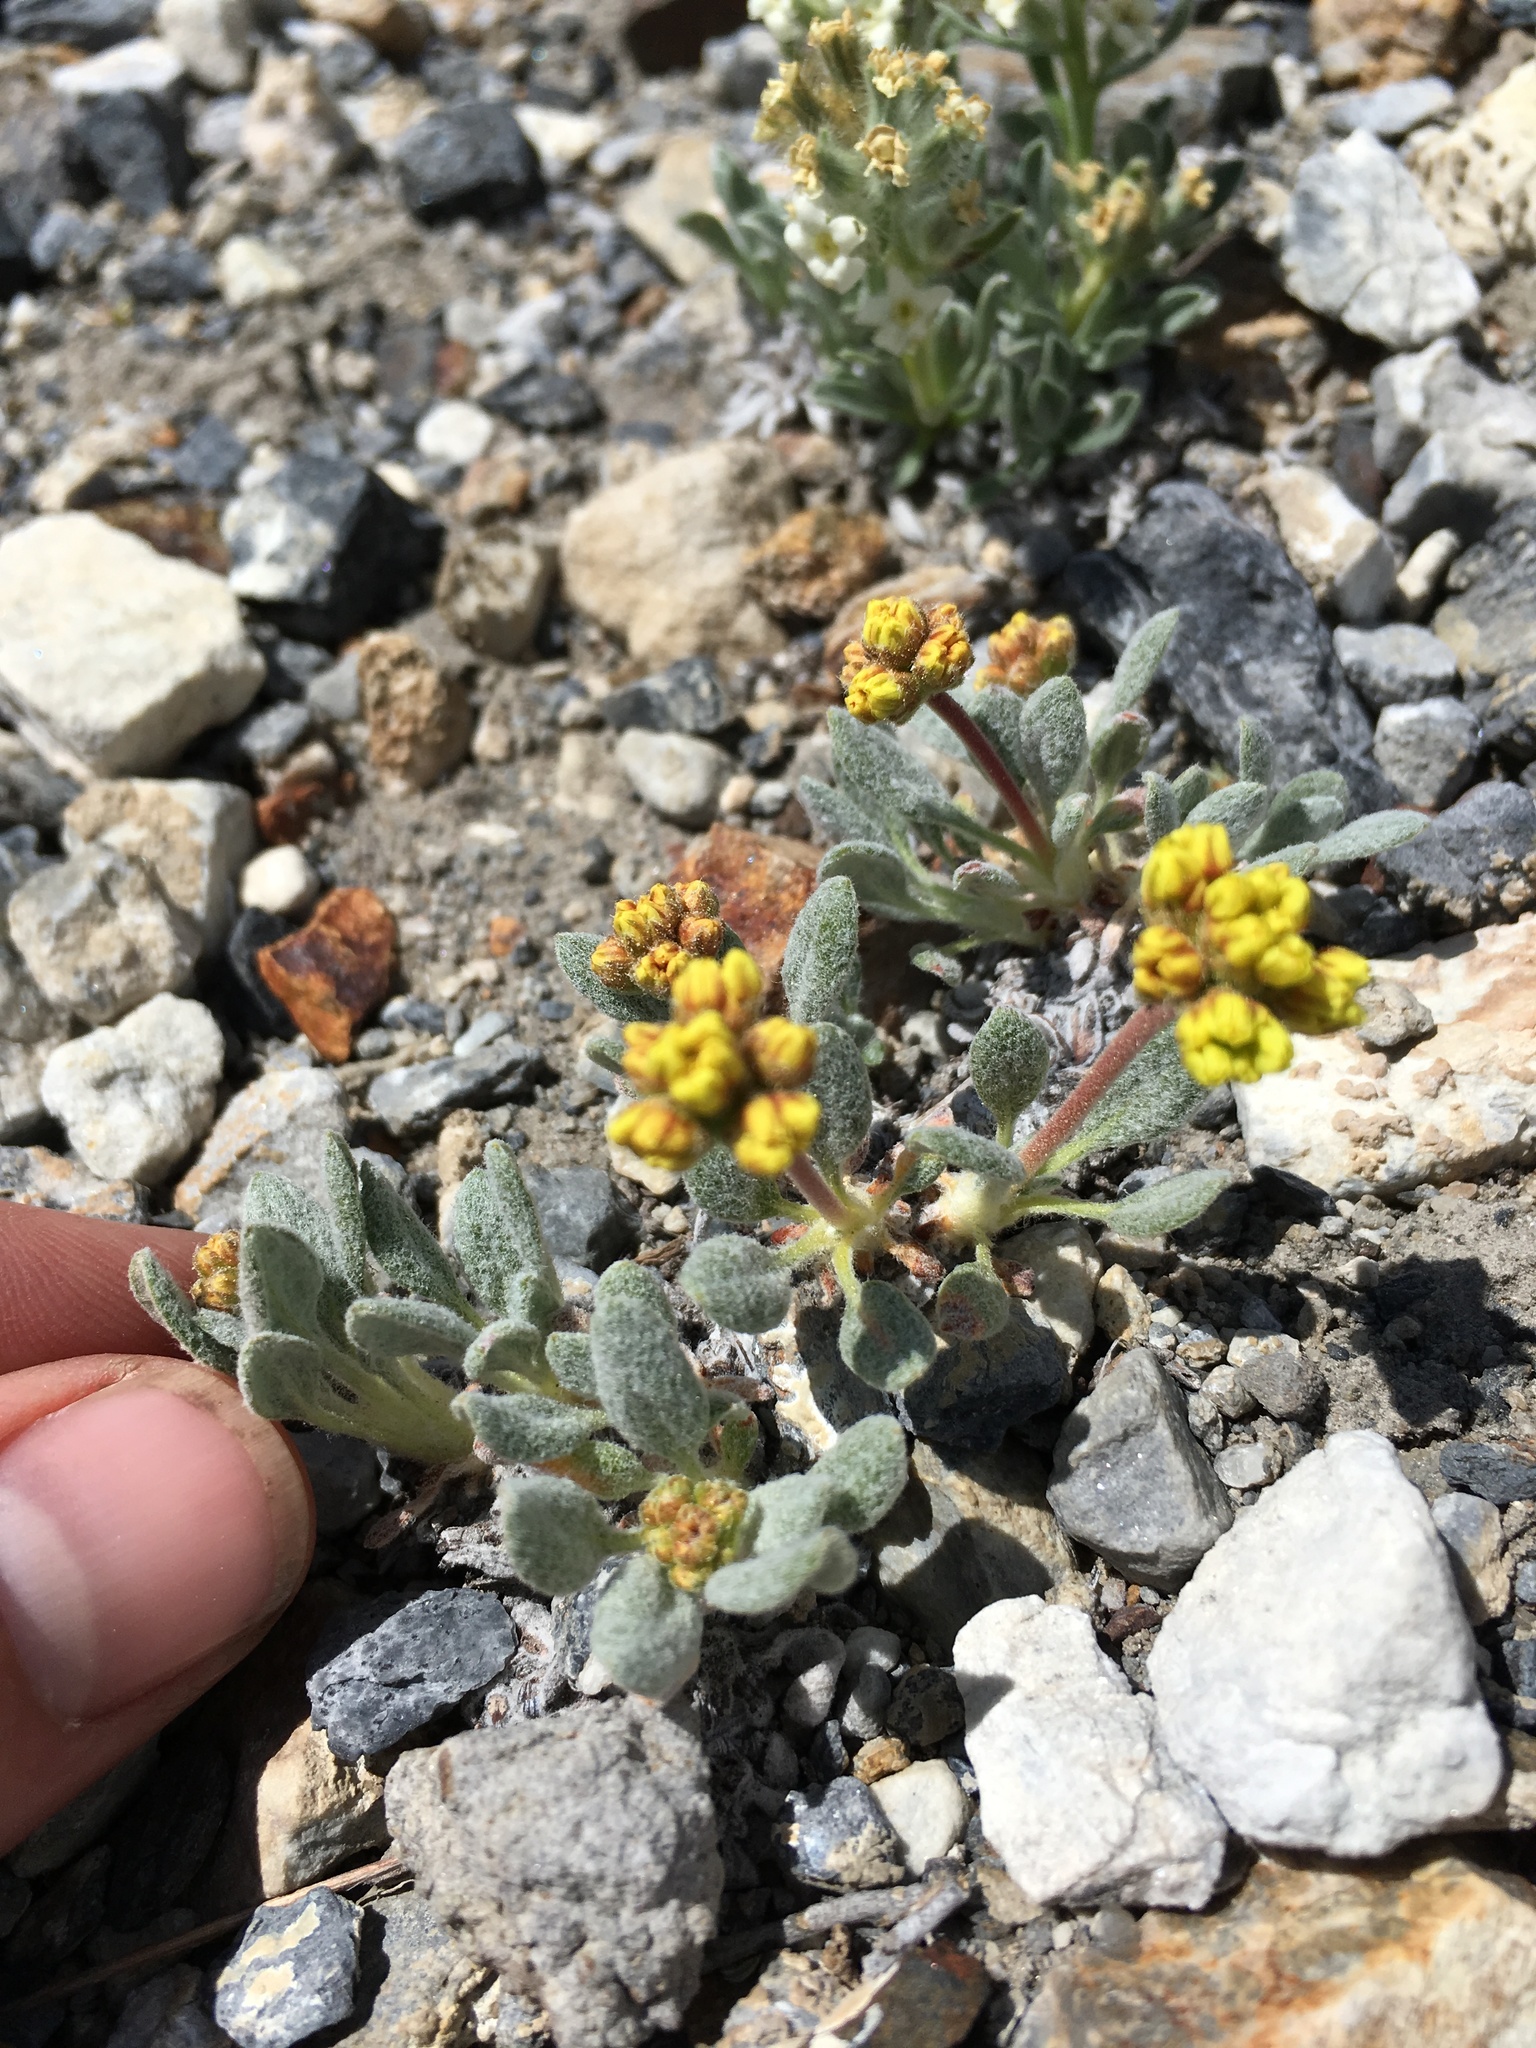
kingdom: Plantae
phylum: Tracheophyta
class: Magnoliopsida
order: Caryophyllales
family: Polygonaceae
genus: Eriogonum
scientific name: Eriogonum rosense
